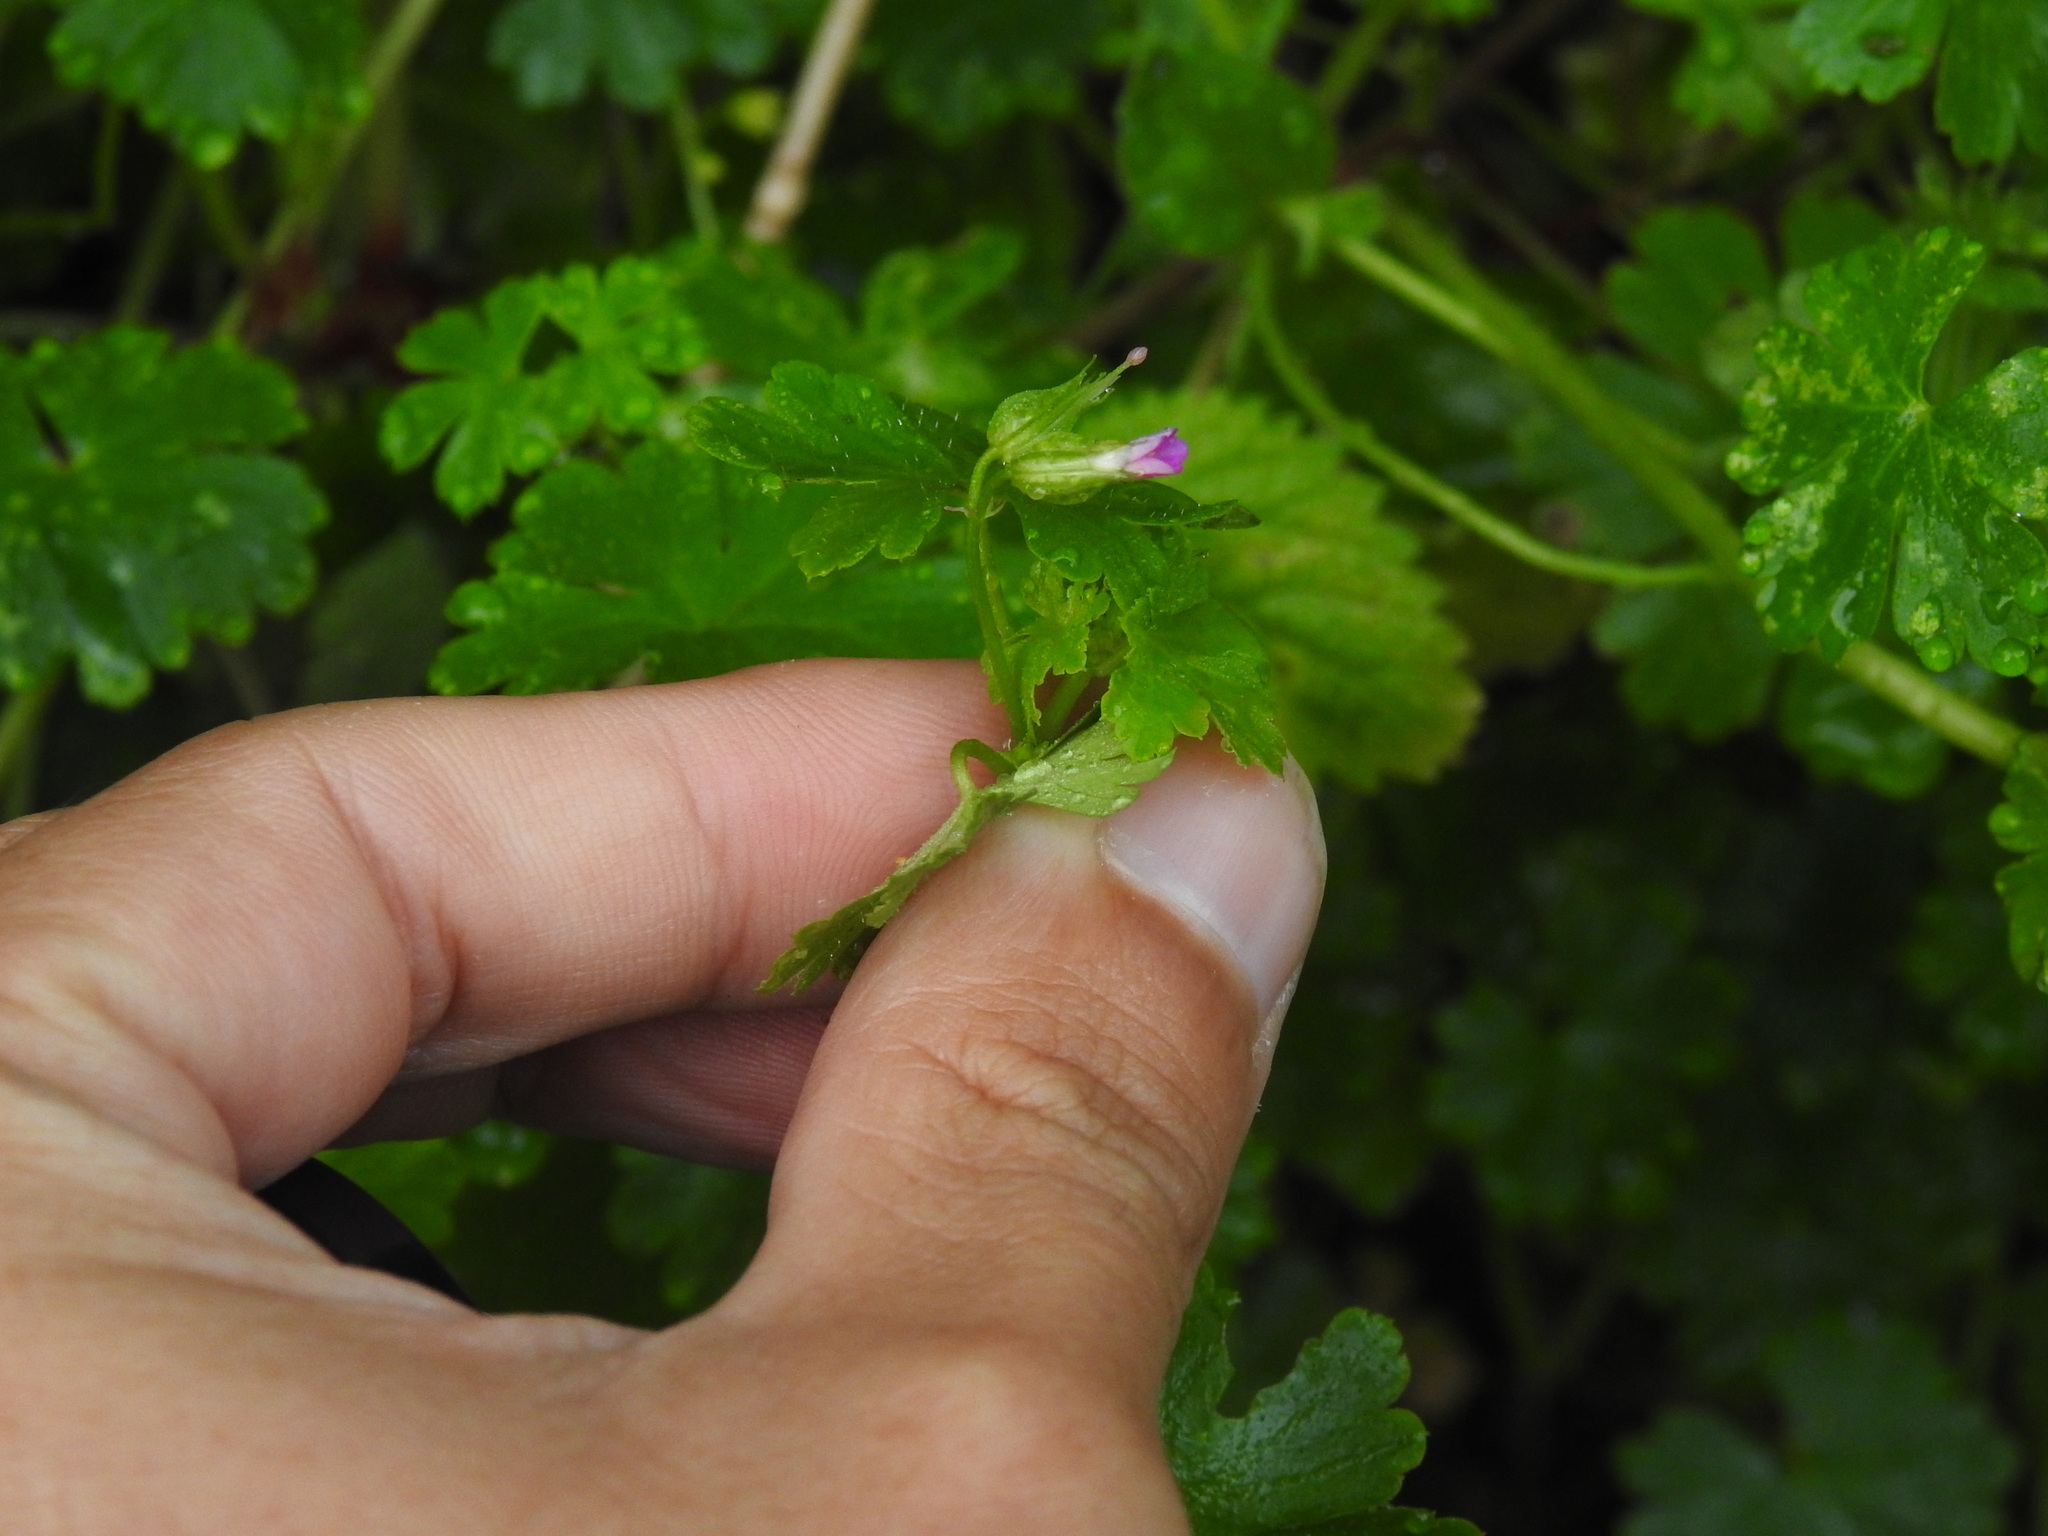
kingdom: Plantae
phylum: Tracheophyta
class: Magnoliopsida
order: Geraniales
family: Geraniaceae
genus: Geranium
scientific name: Geranium lucidum
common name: Shining crane's-bill
